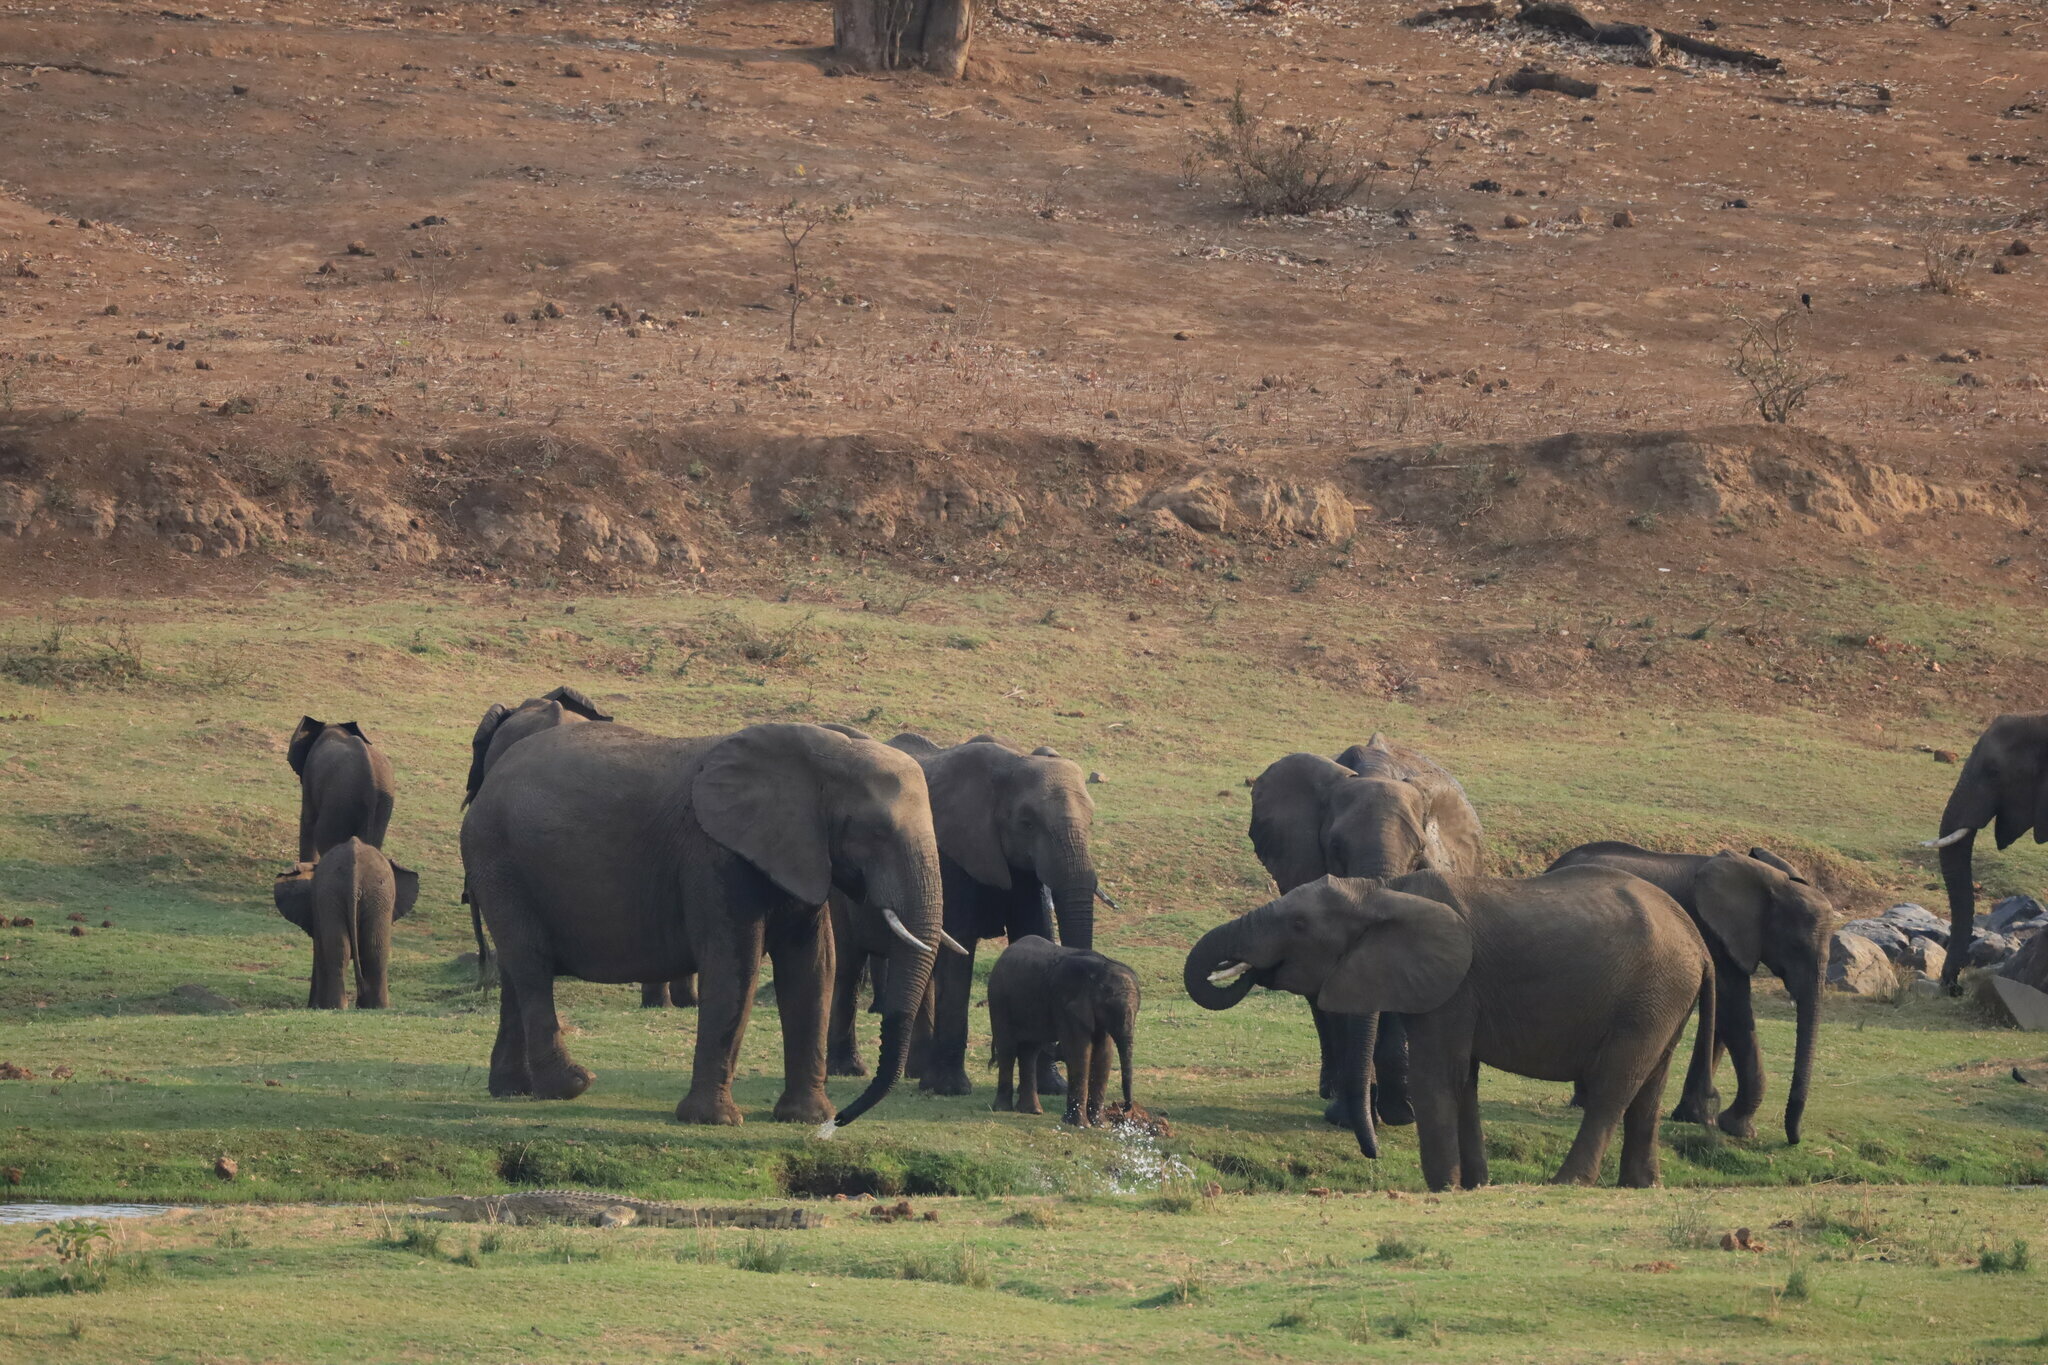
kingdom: Animalia
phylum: Chordata
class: Mammalia
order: Proboscidea
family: Elephantidae
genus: Loxodonta
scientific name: Loxodonta africana
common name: African elephant
